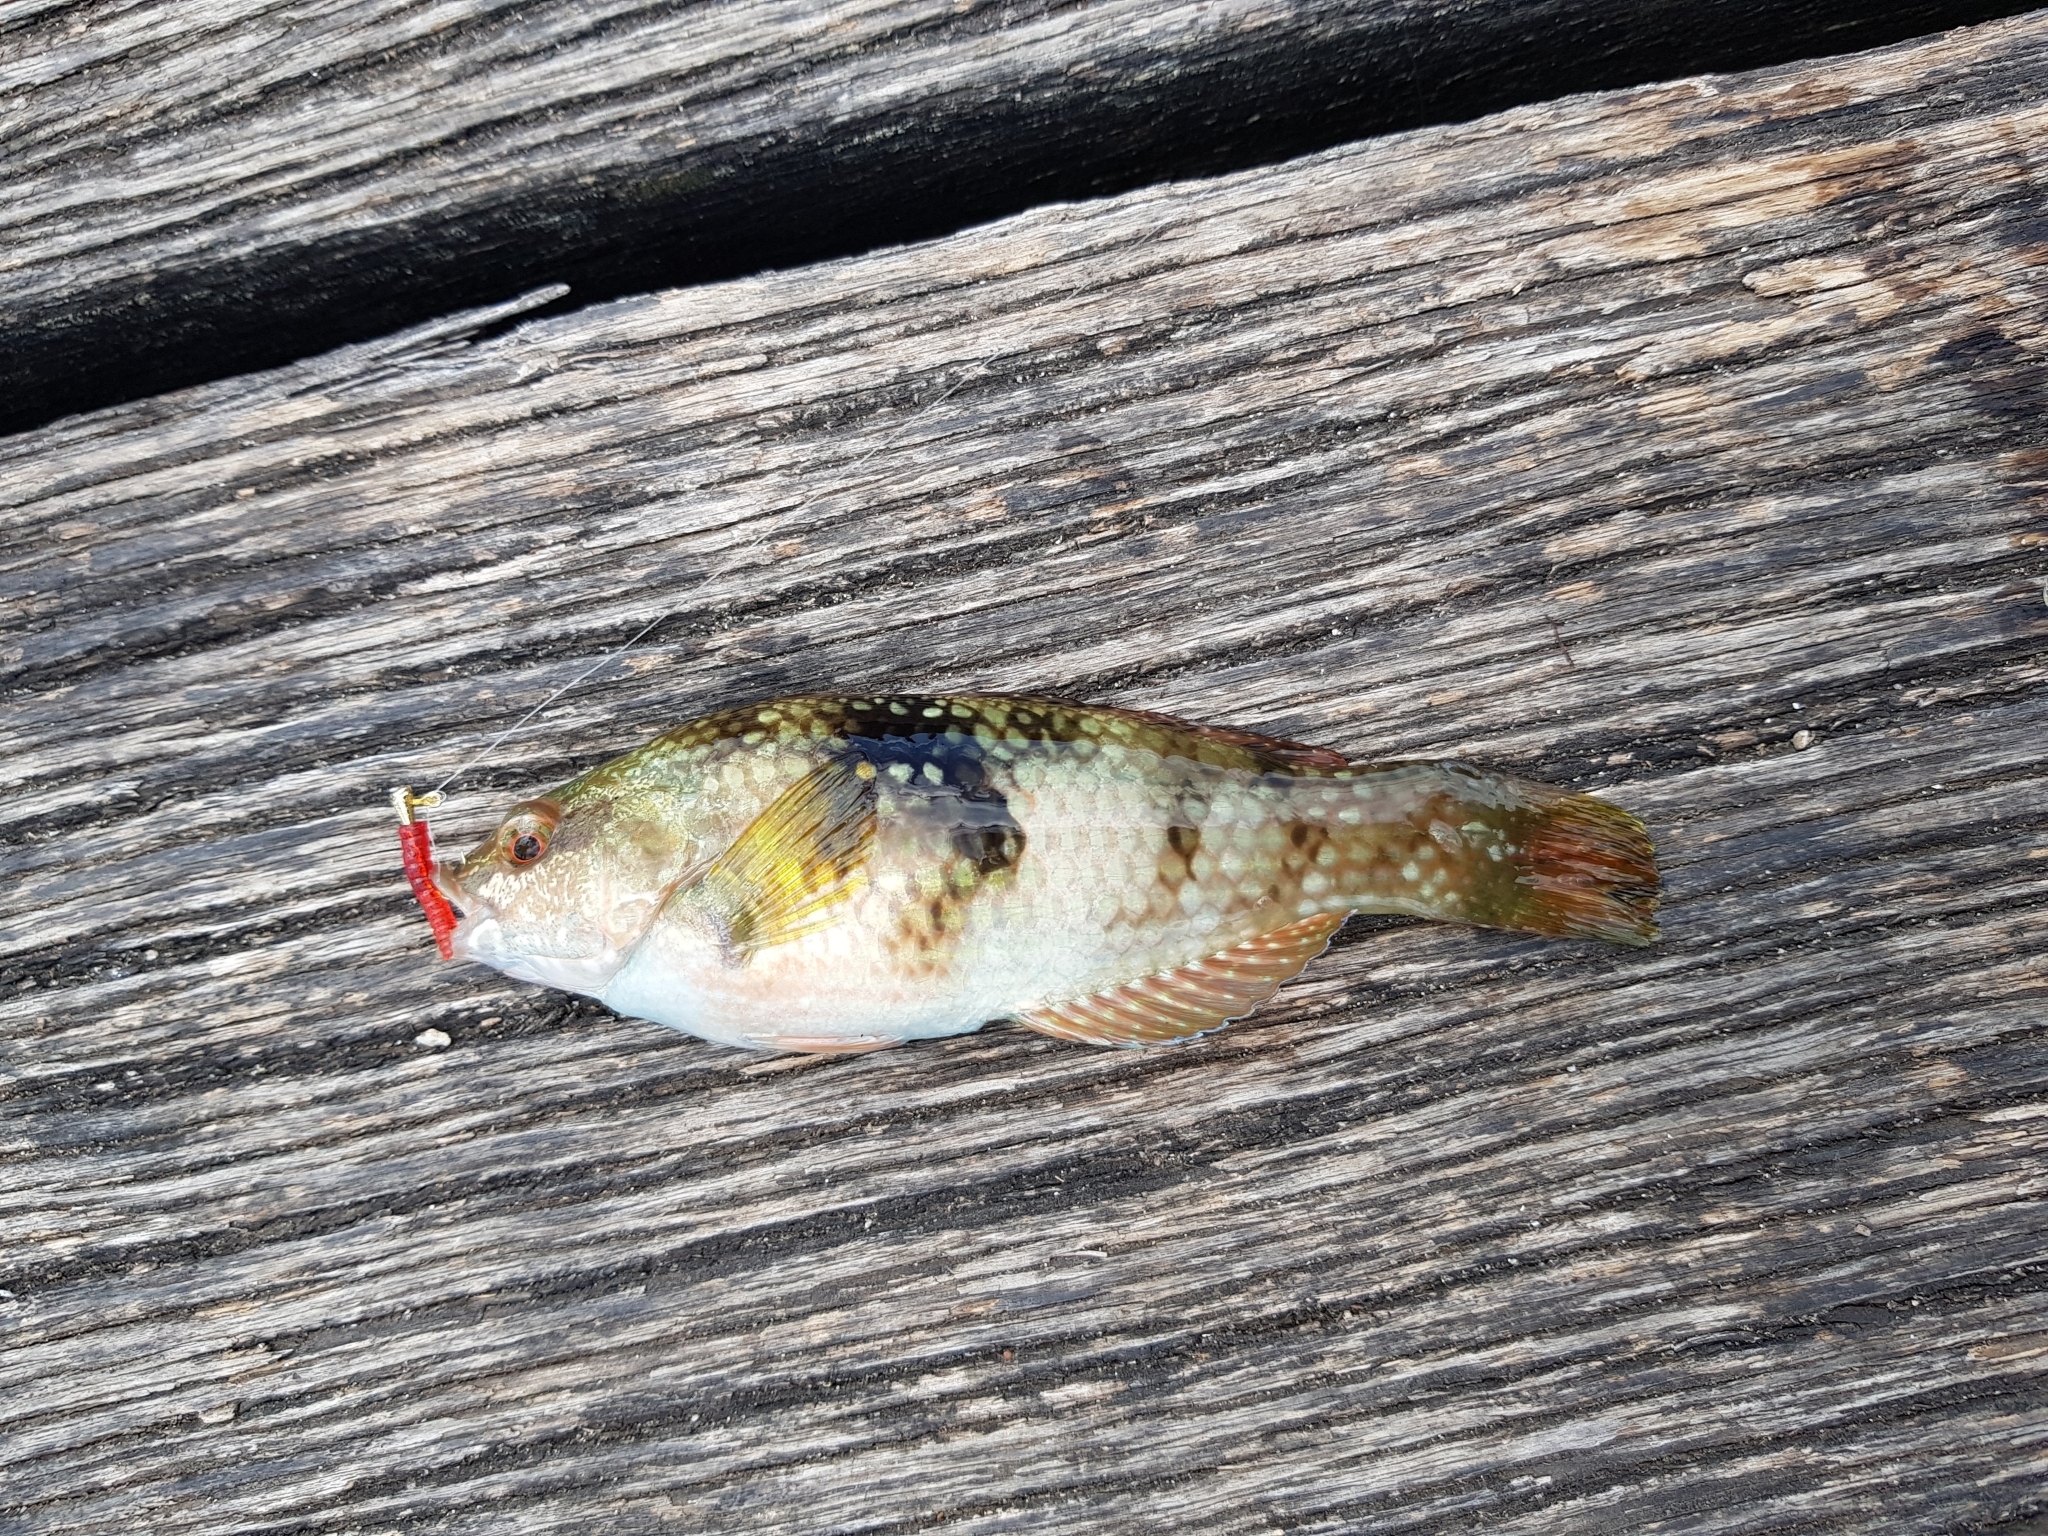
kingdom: Animalia
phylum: Chordata
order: Perciformes
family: Labridae
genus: Notolabrus
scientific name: Notolabrus tetricus
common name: Blue-throated parrotfish
